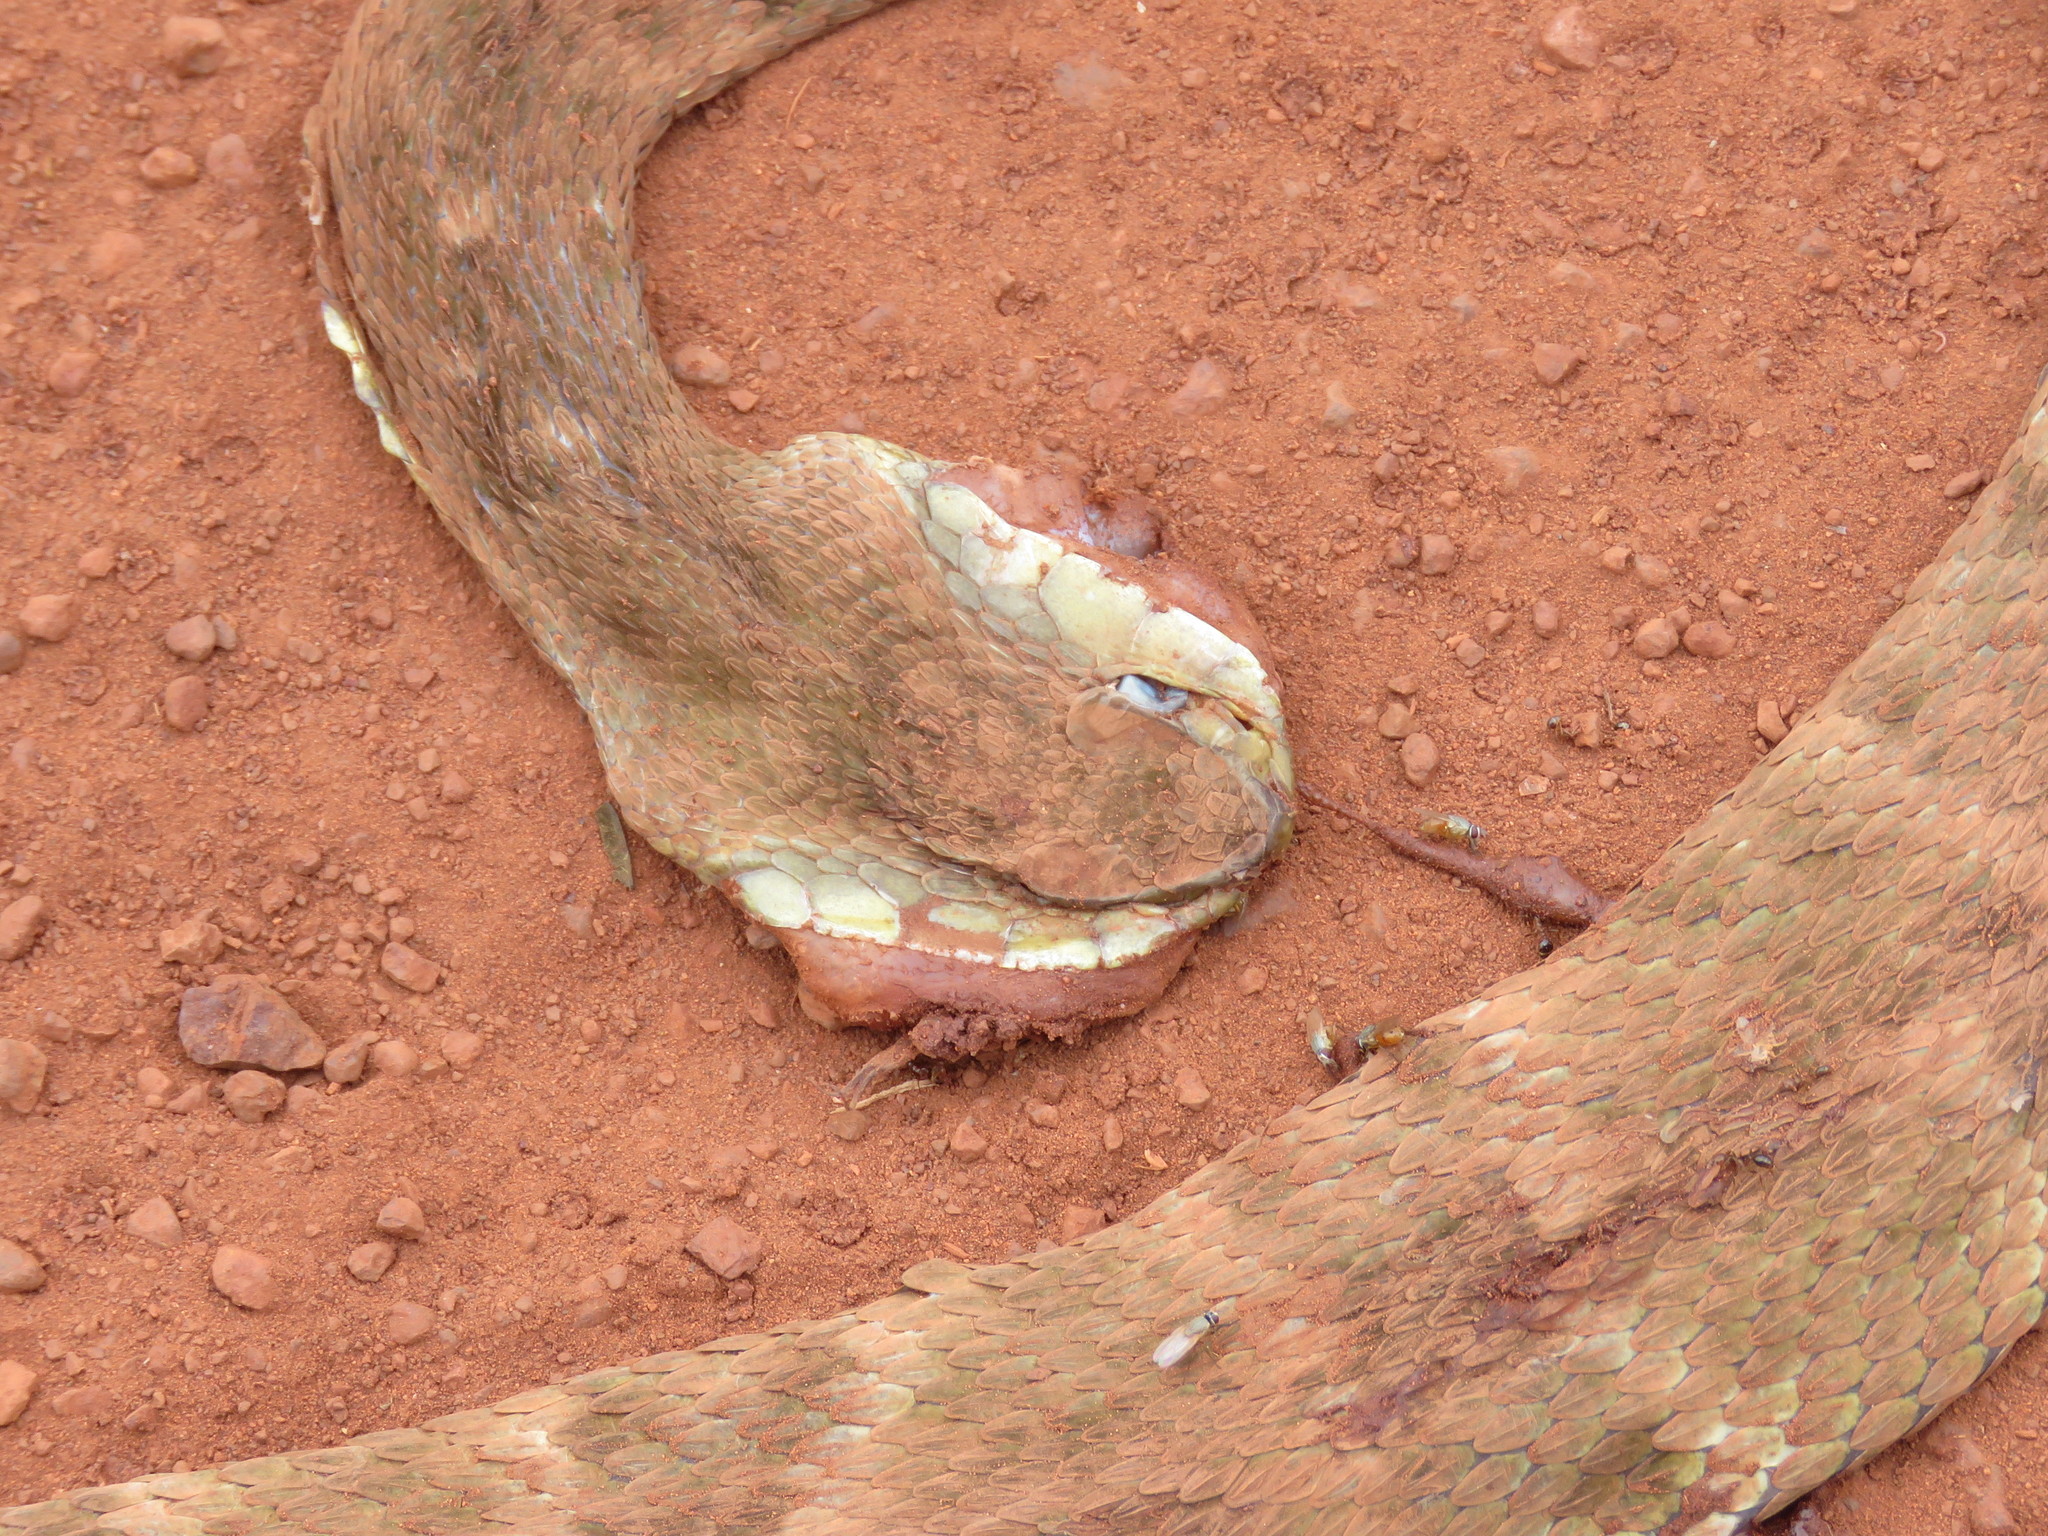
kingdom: Animalia
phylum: Chordata
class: Squamata
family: Viperidae
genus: Bothrops
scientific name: Bothrops atrox
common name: Common lancehead
